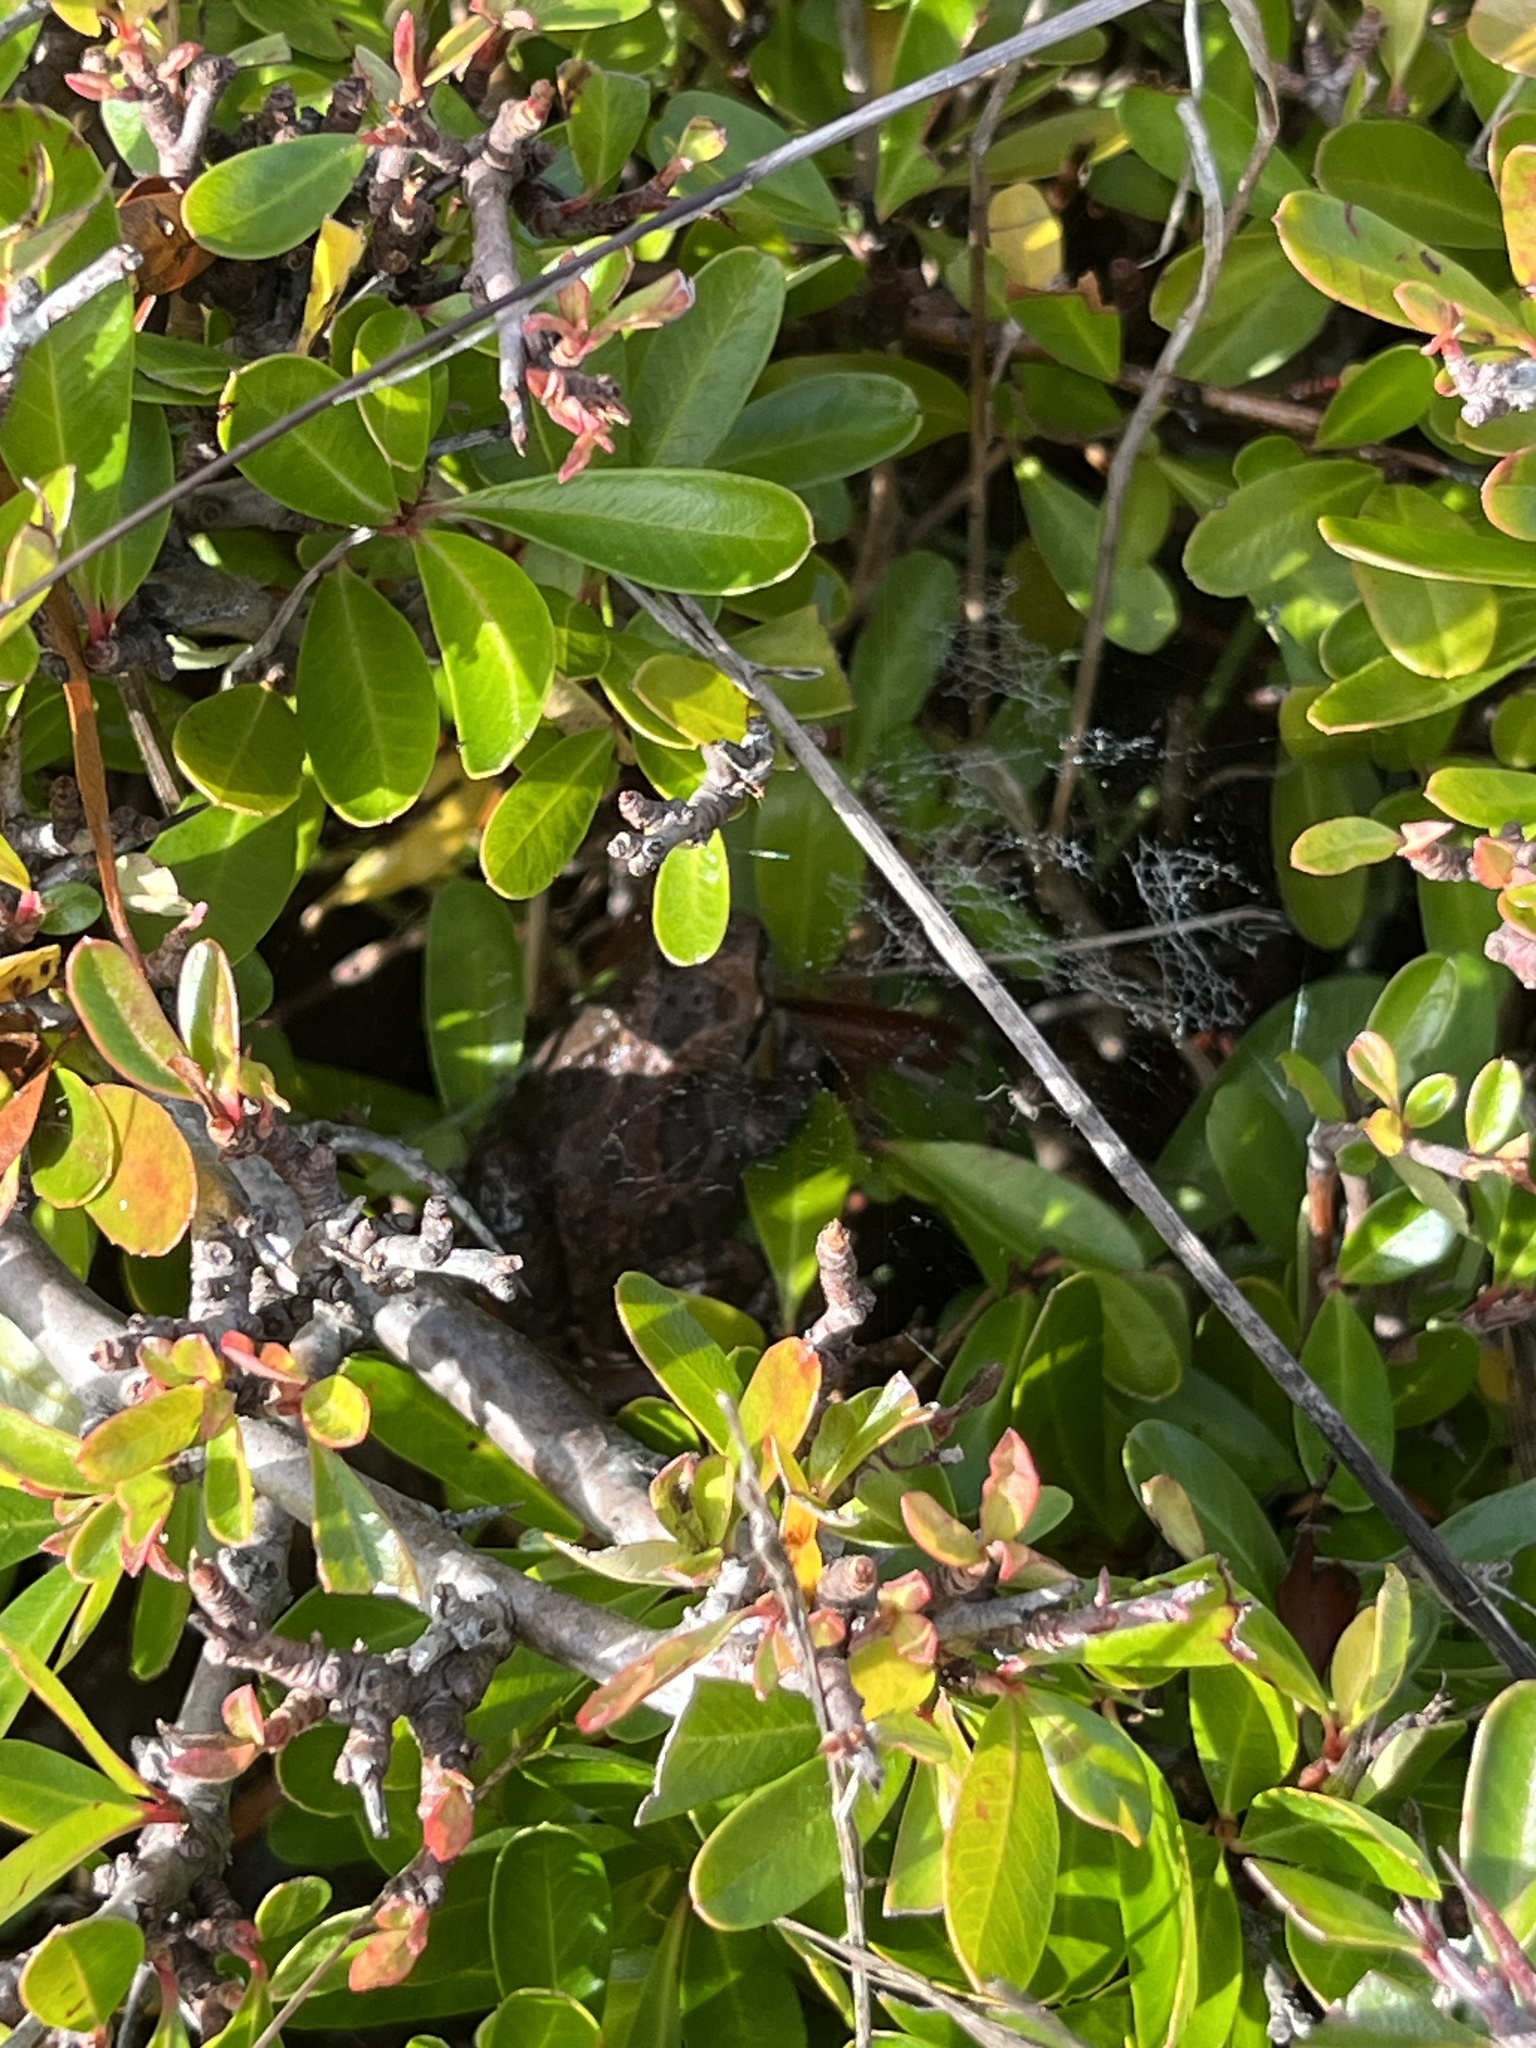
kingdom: Animalia
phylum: Chordata
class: Amphibia
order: Anura
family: Hylidae
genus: Pseudacris
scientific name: Pseudacris regilla
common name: Pacific chorus frog
